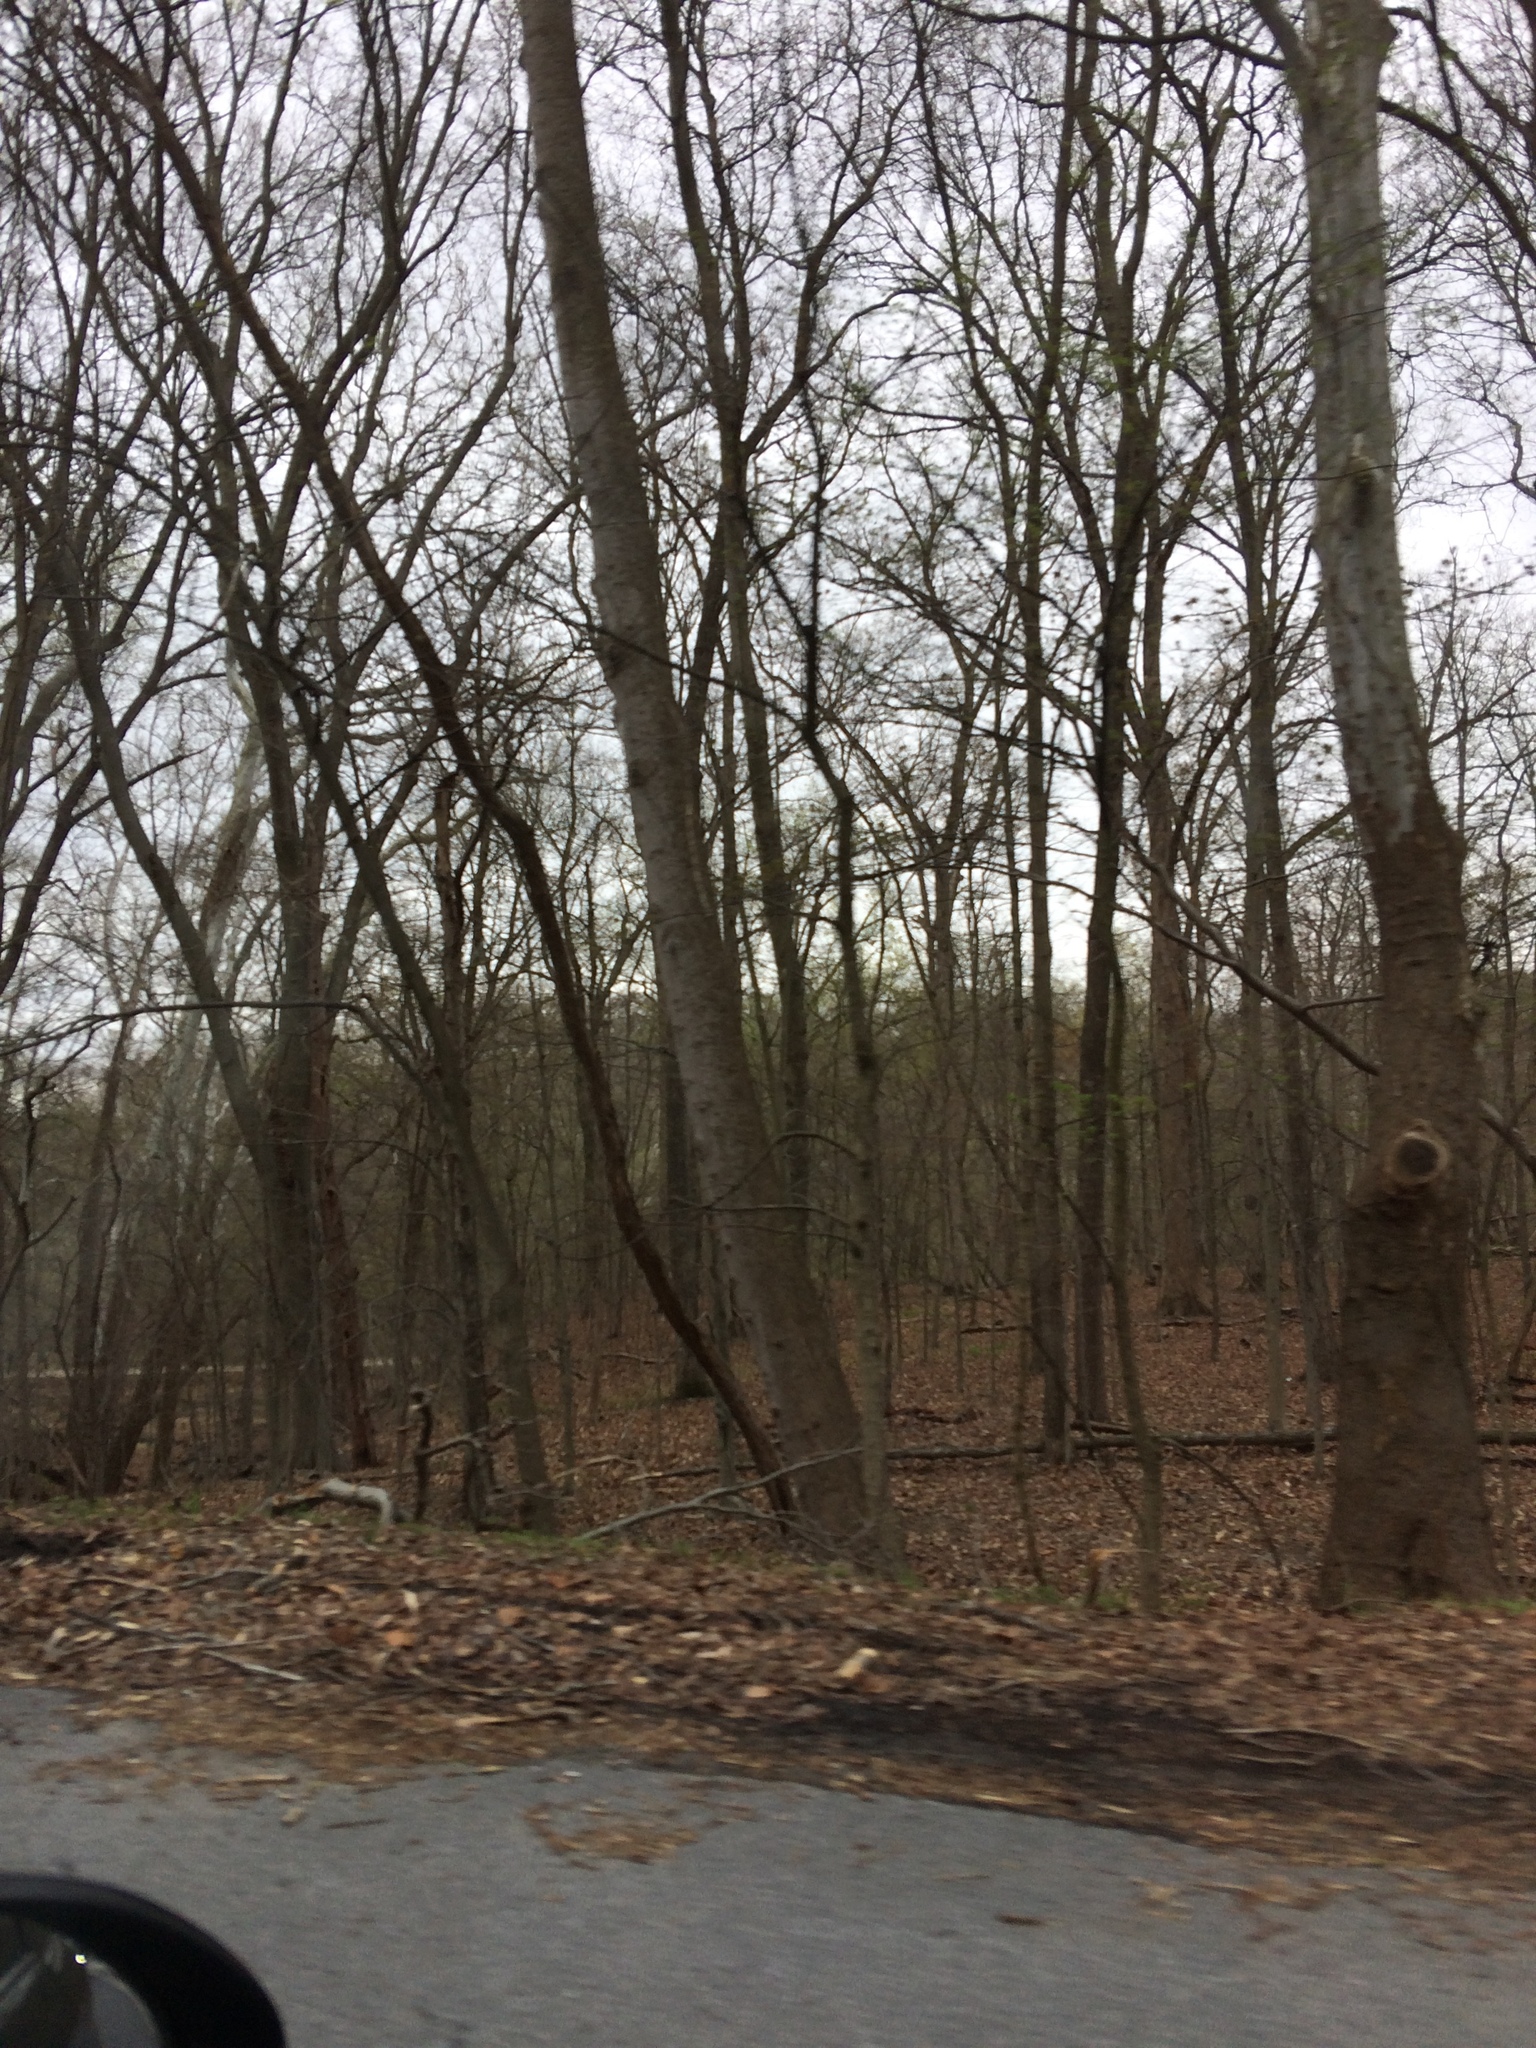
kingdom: Plantae
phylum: Tracheophyta
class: Magnoliopsida
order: Proteales
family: Platanaceae
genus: Platanus
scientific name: Platanus occidentalis
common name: American sycamore
